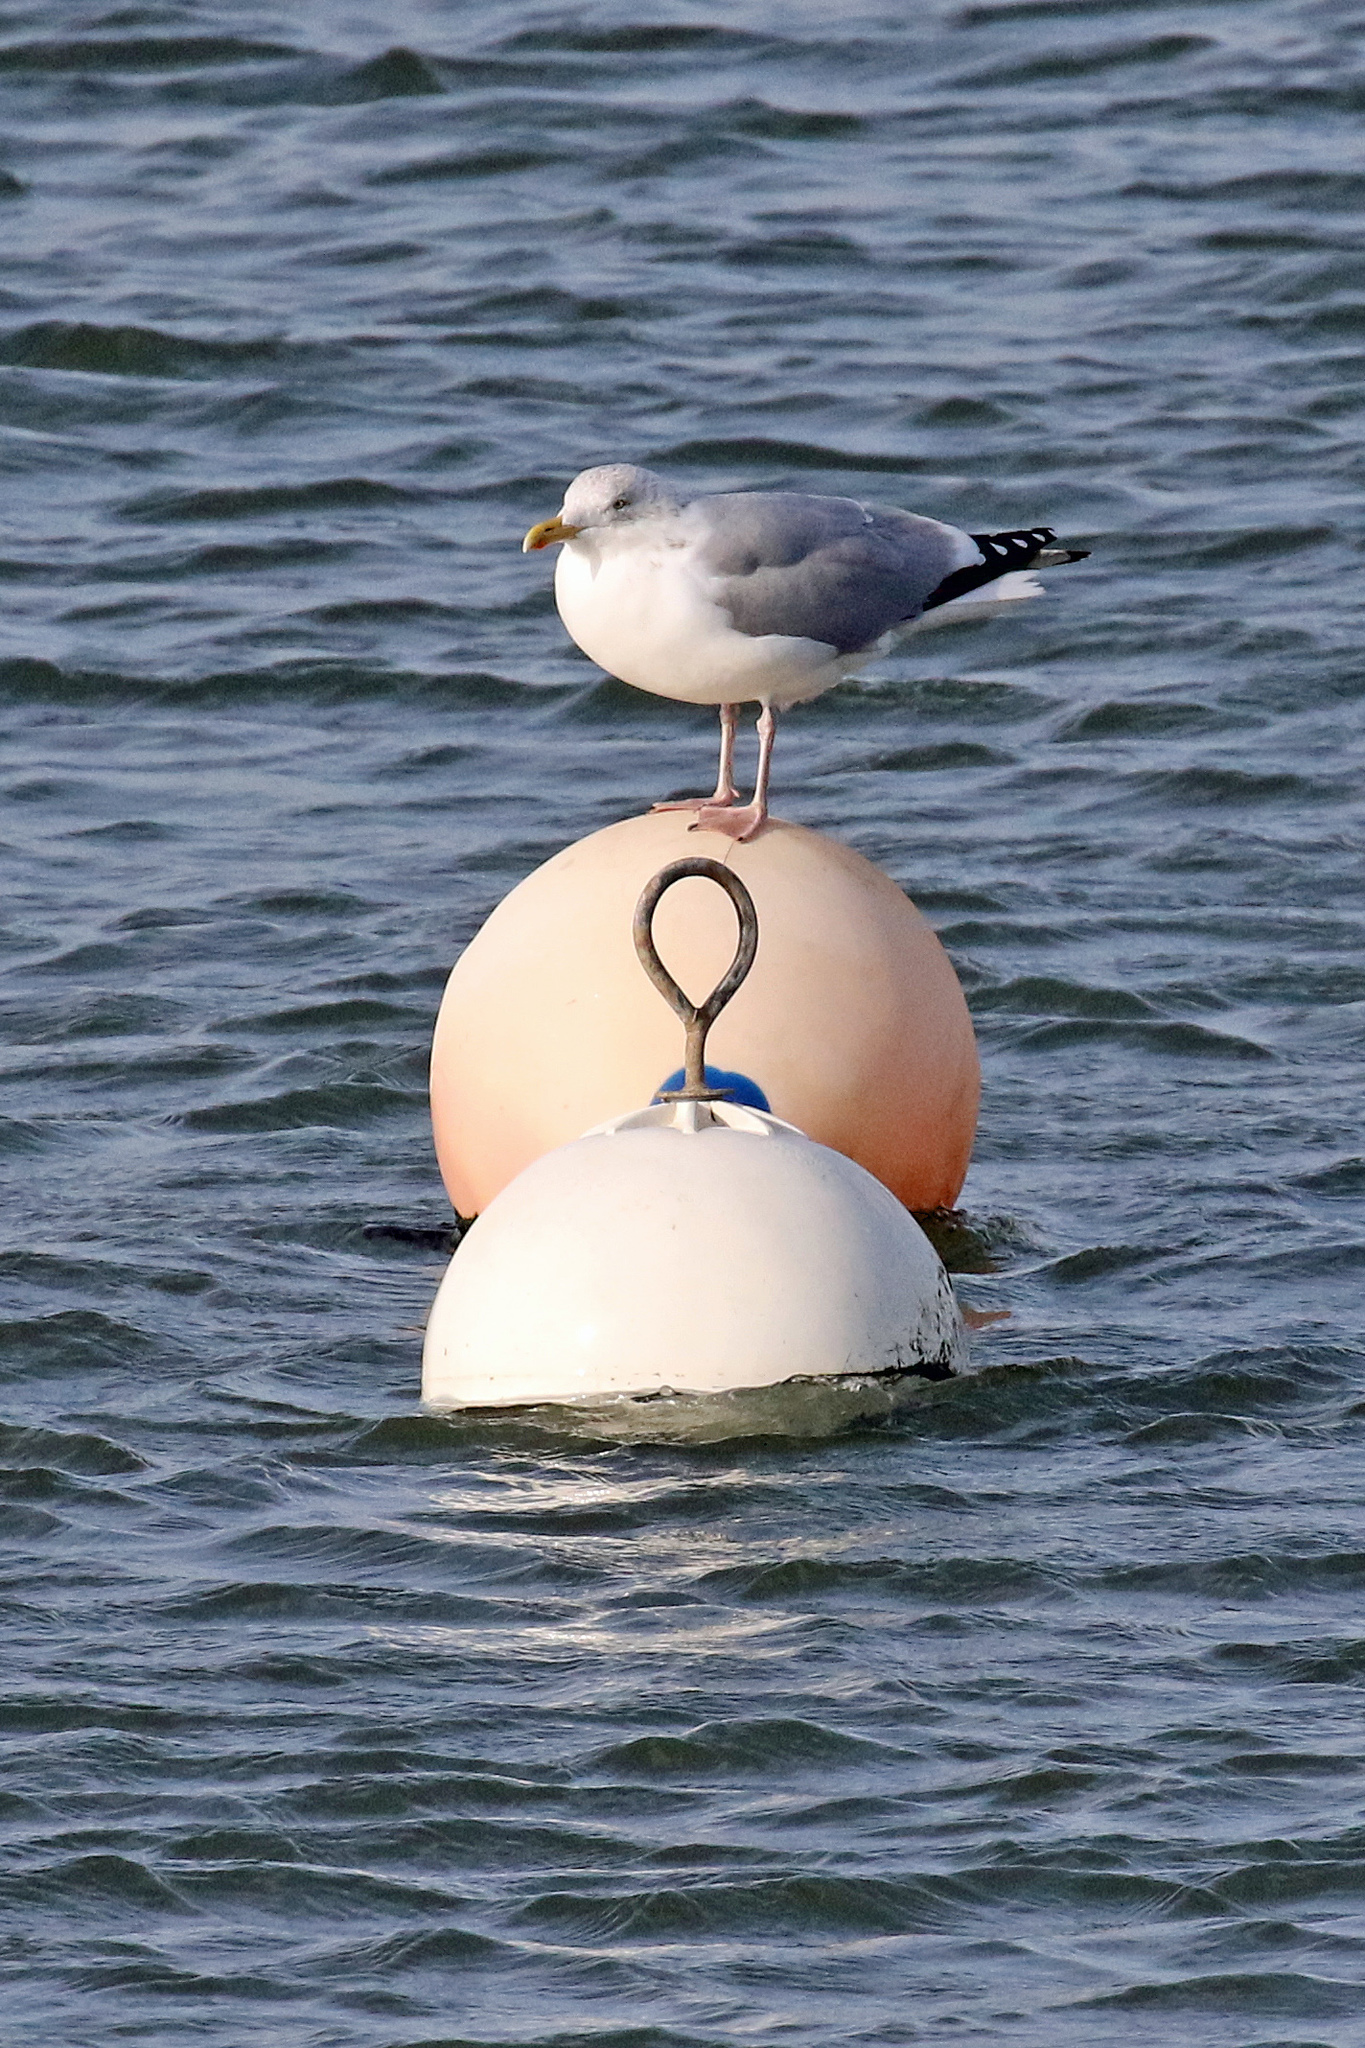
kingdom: Animalia
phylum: Chordata
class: Aves
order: Charadriiformes
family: Laridae
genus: Larus
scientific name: Larus argentatus
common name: Herring gull
